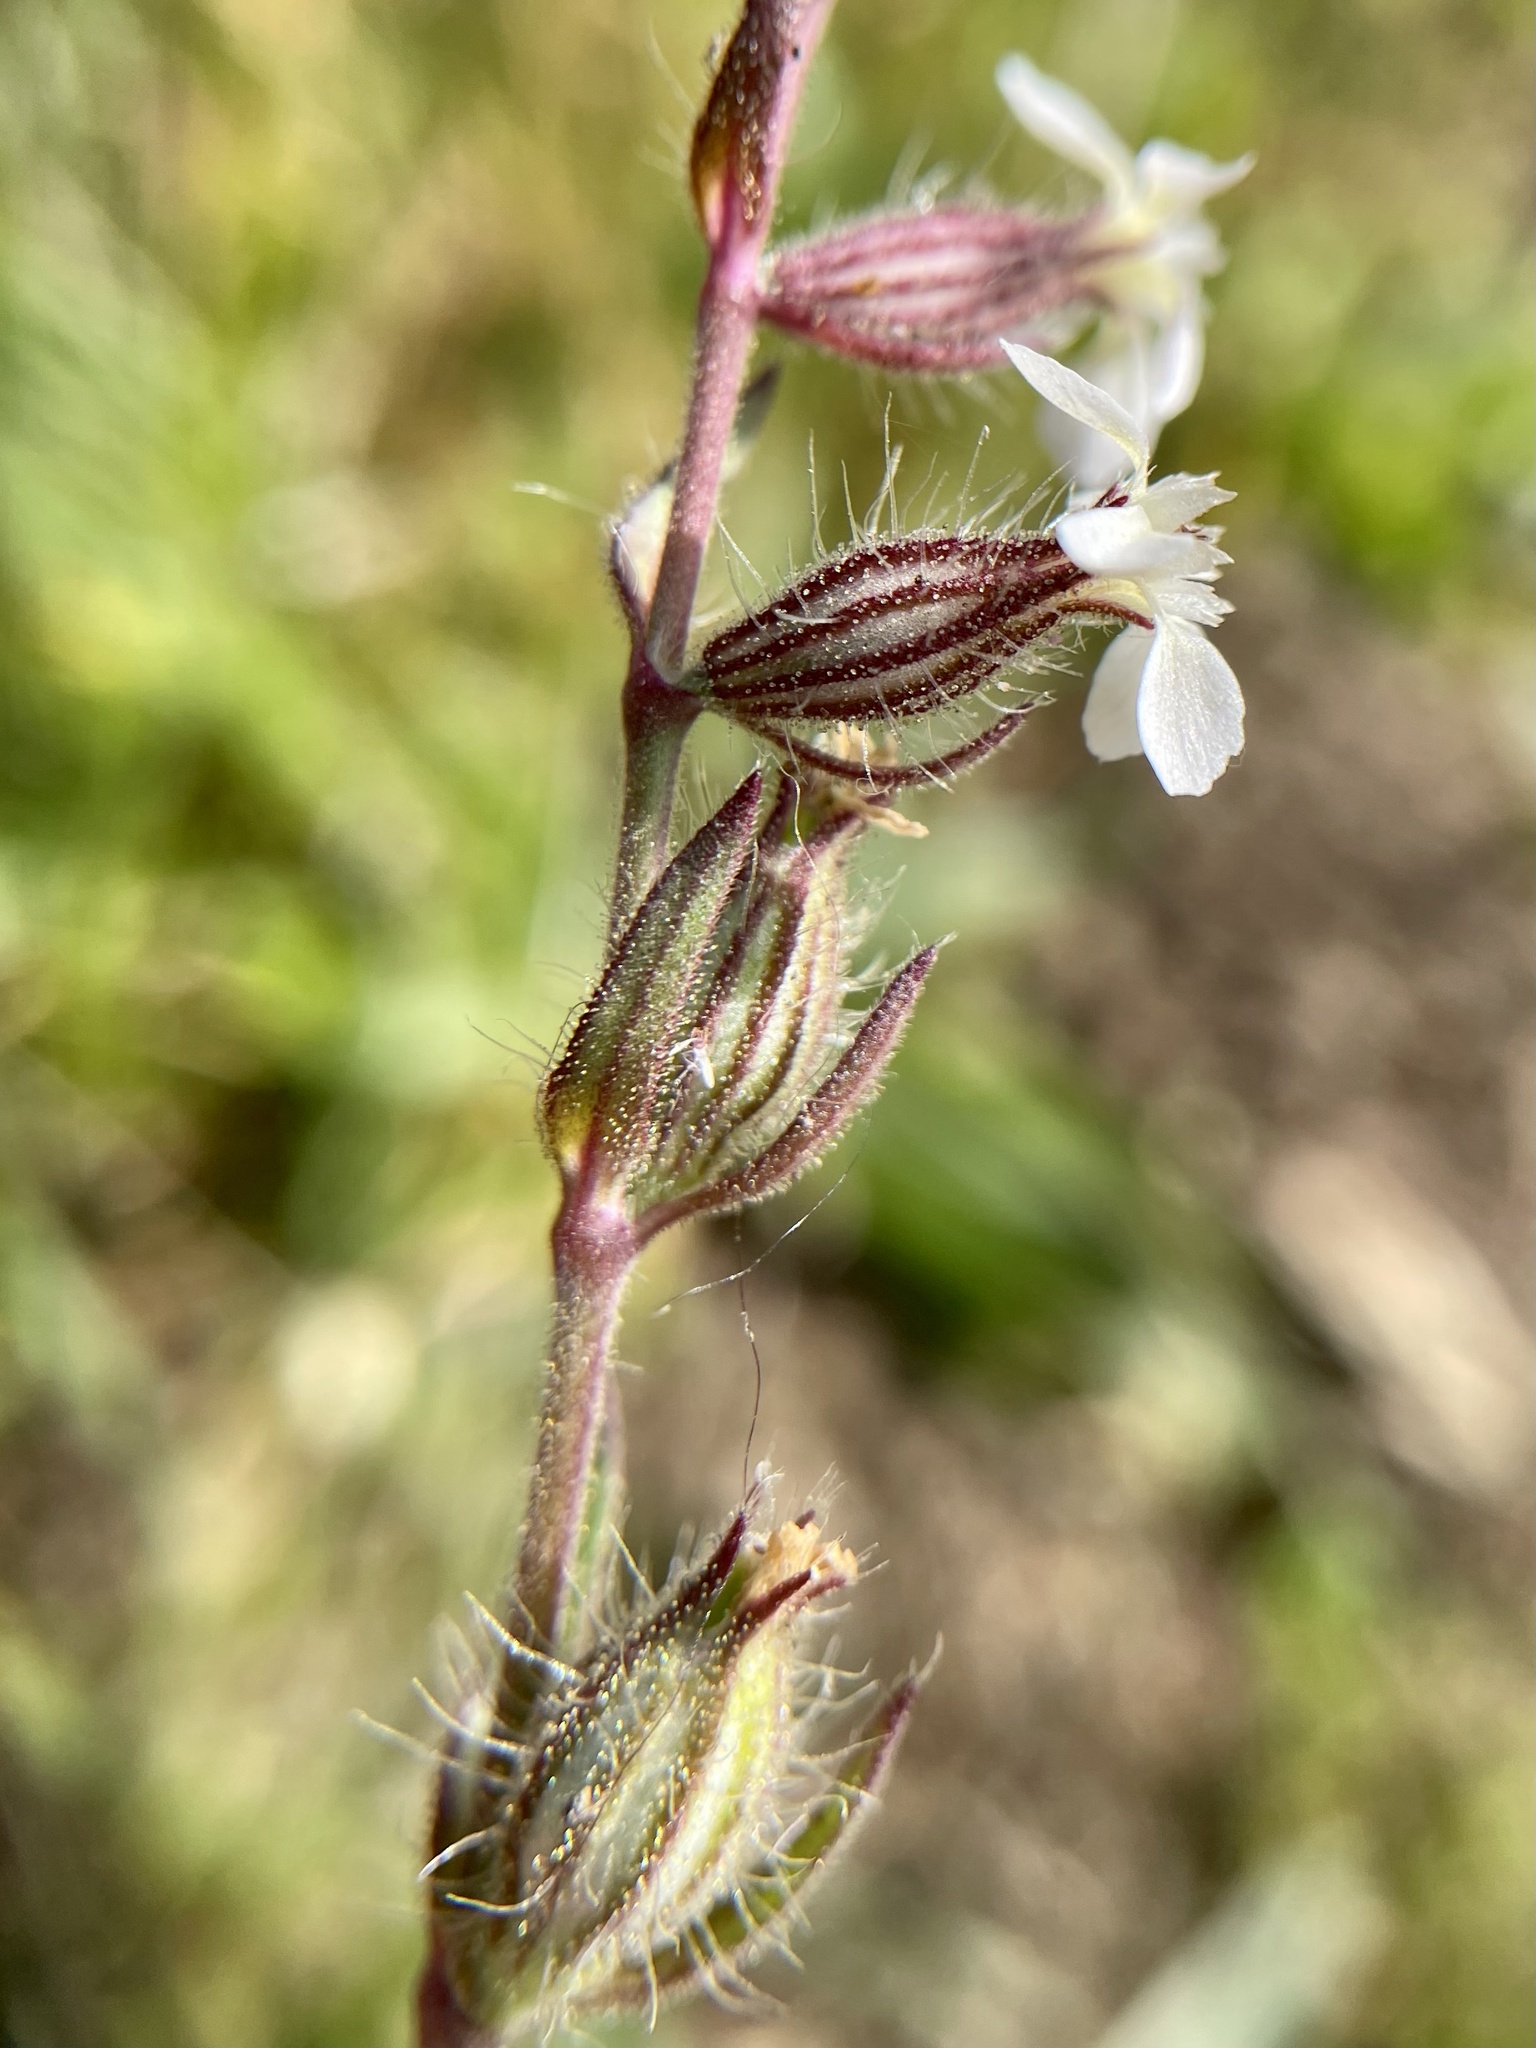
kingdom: Plantae
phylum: Tracheophyta
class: Magnoliopsida
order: Caryophyllales
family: Caryophyllaceae
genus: Silene
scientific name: Silene gallica
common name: Small-flowered catchfly
